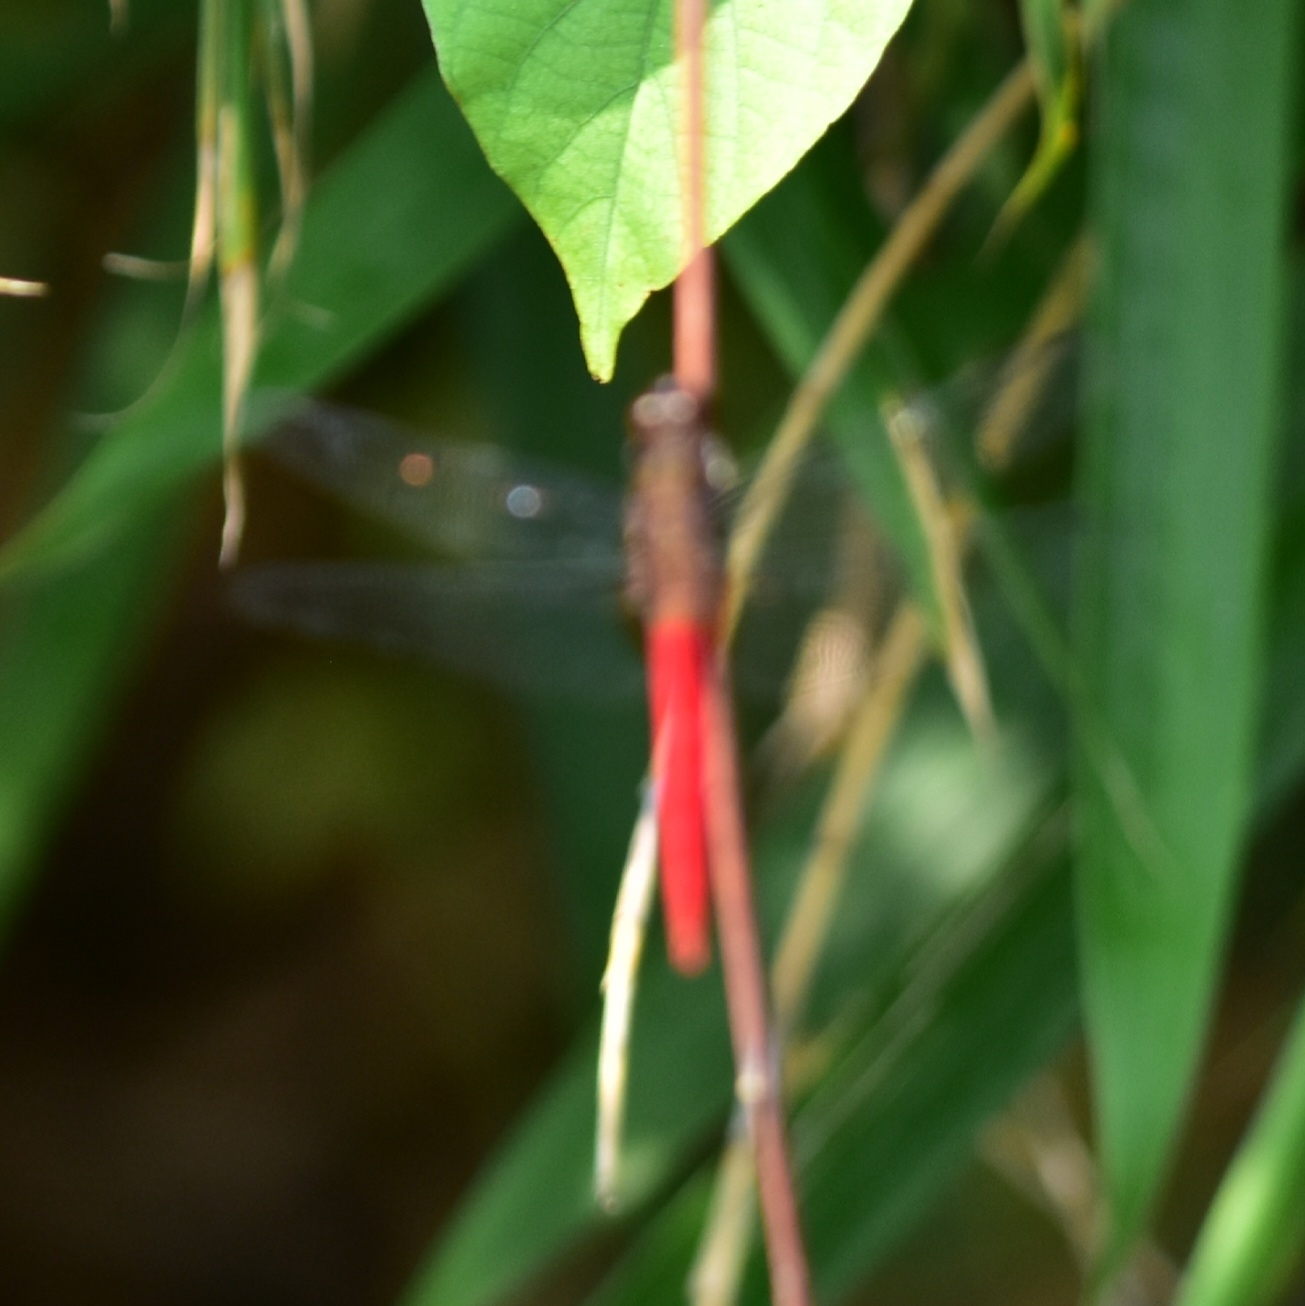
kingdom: Animalia
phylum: Arthropoda
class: Insecta
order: Odonata
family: Libellulidae
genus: Orthetrum
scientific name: Orthetrum chrysis
